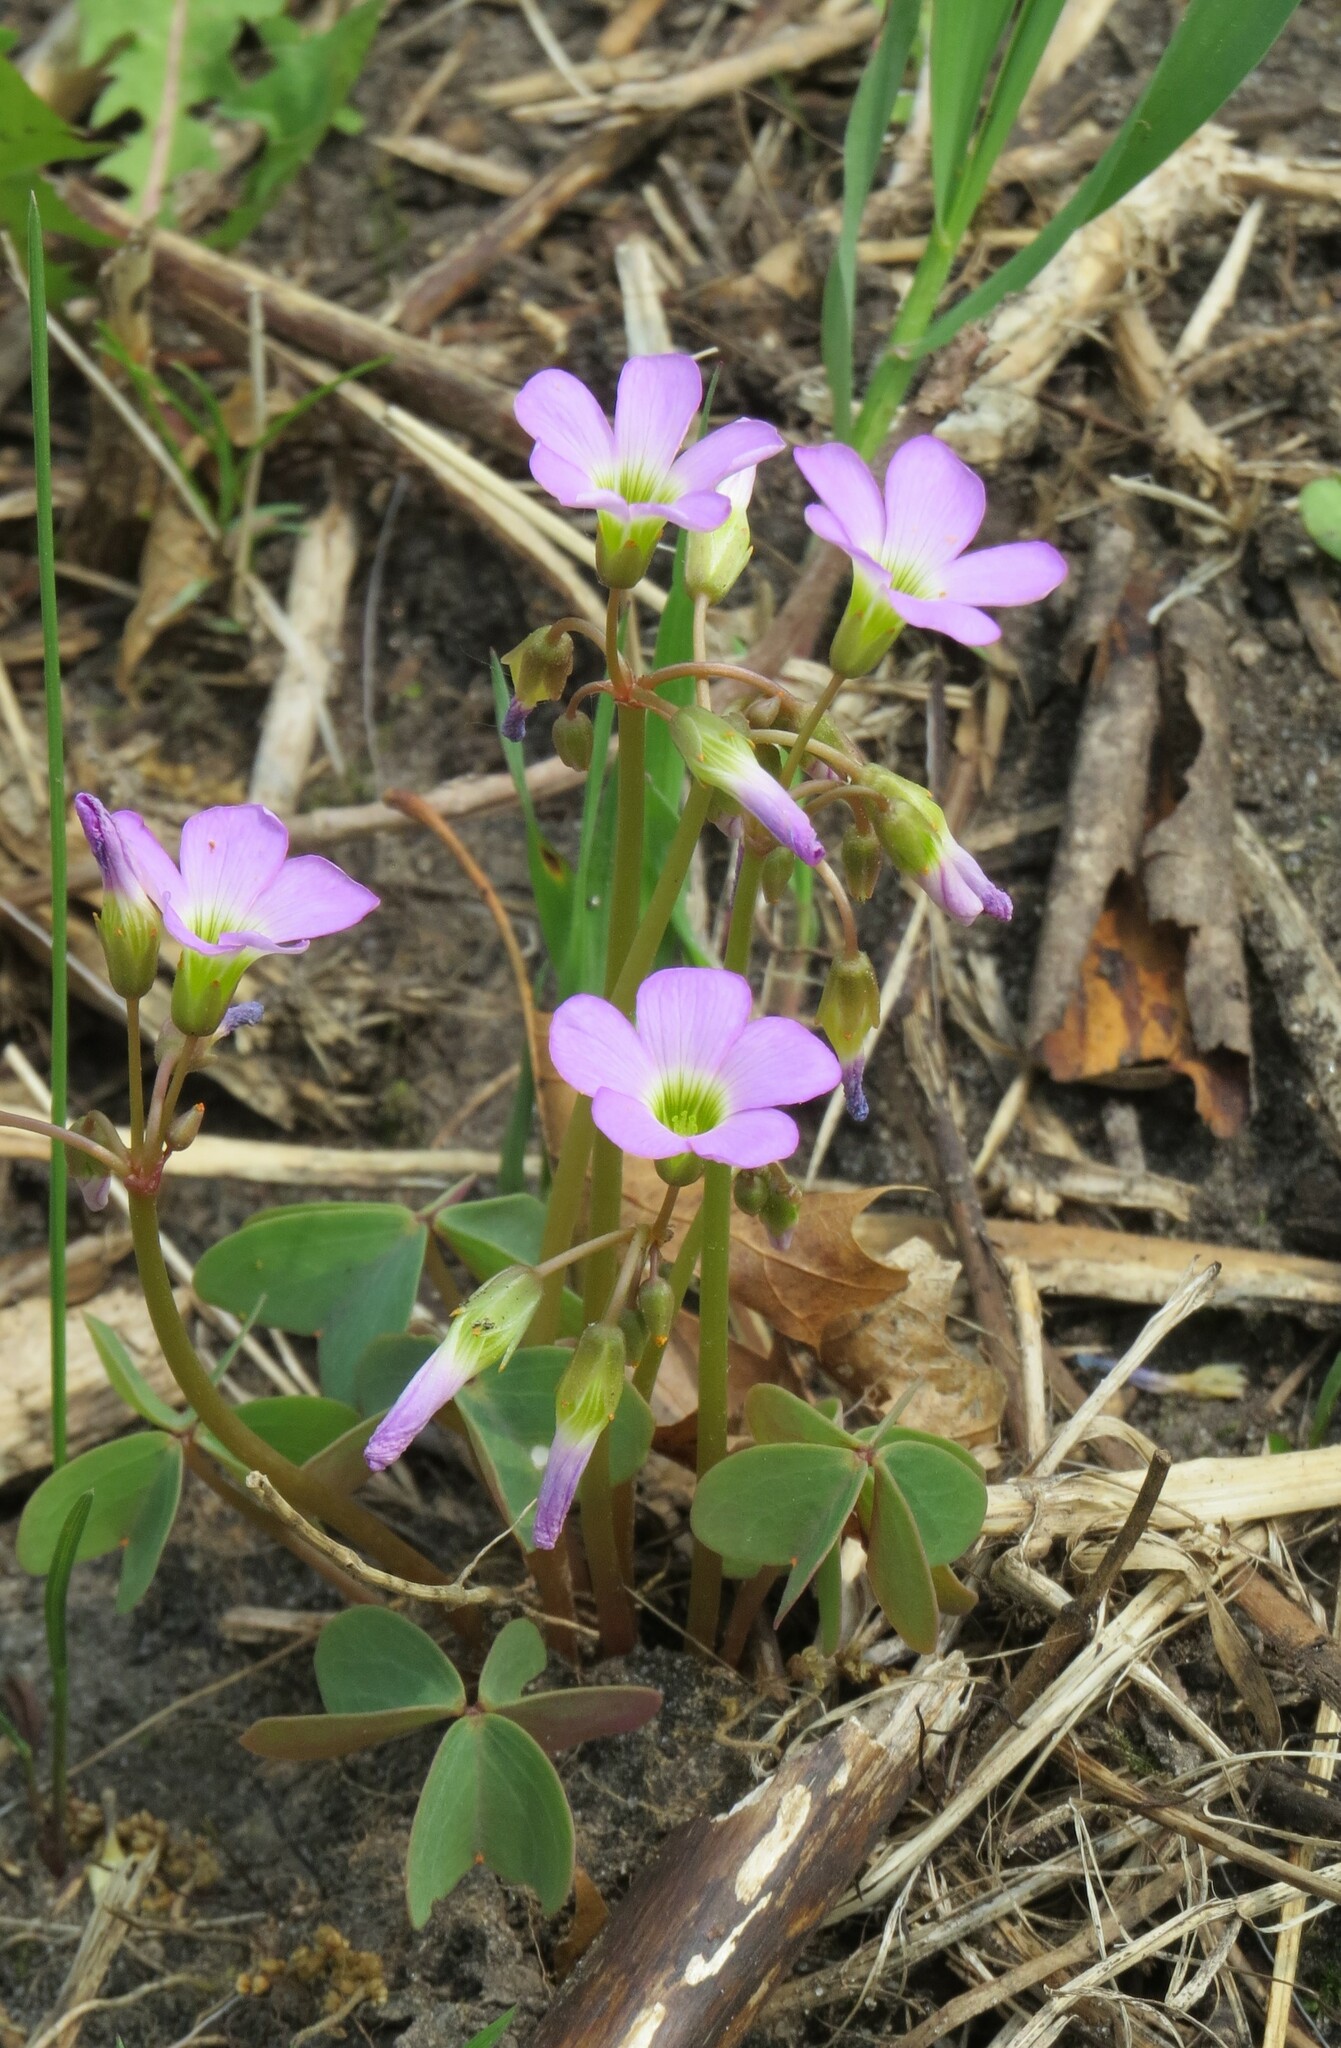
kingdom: Plantae
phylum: Tracheophyta
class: Magnoliopsida
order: Oxalidales
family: Oxalidaceae
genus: Oxalis
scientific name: Oxalis violacea
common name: Violet wood-sorrel
